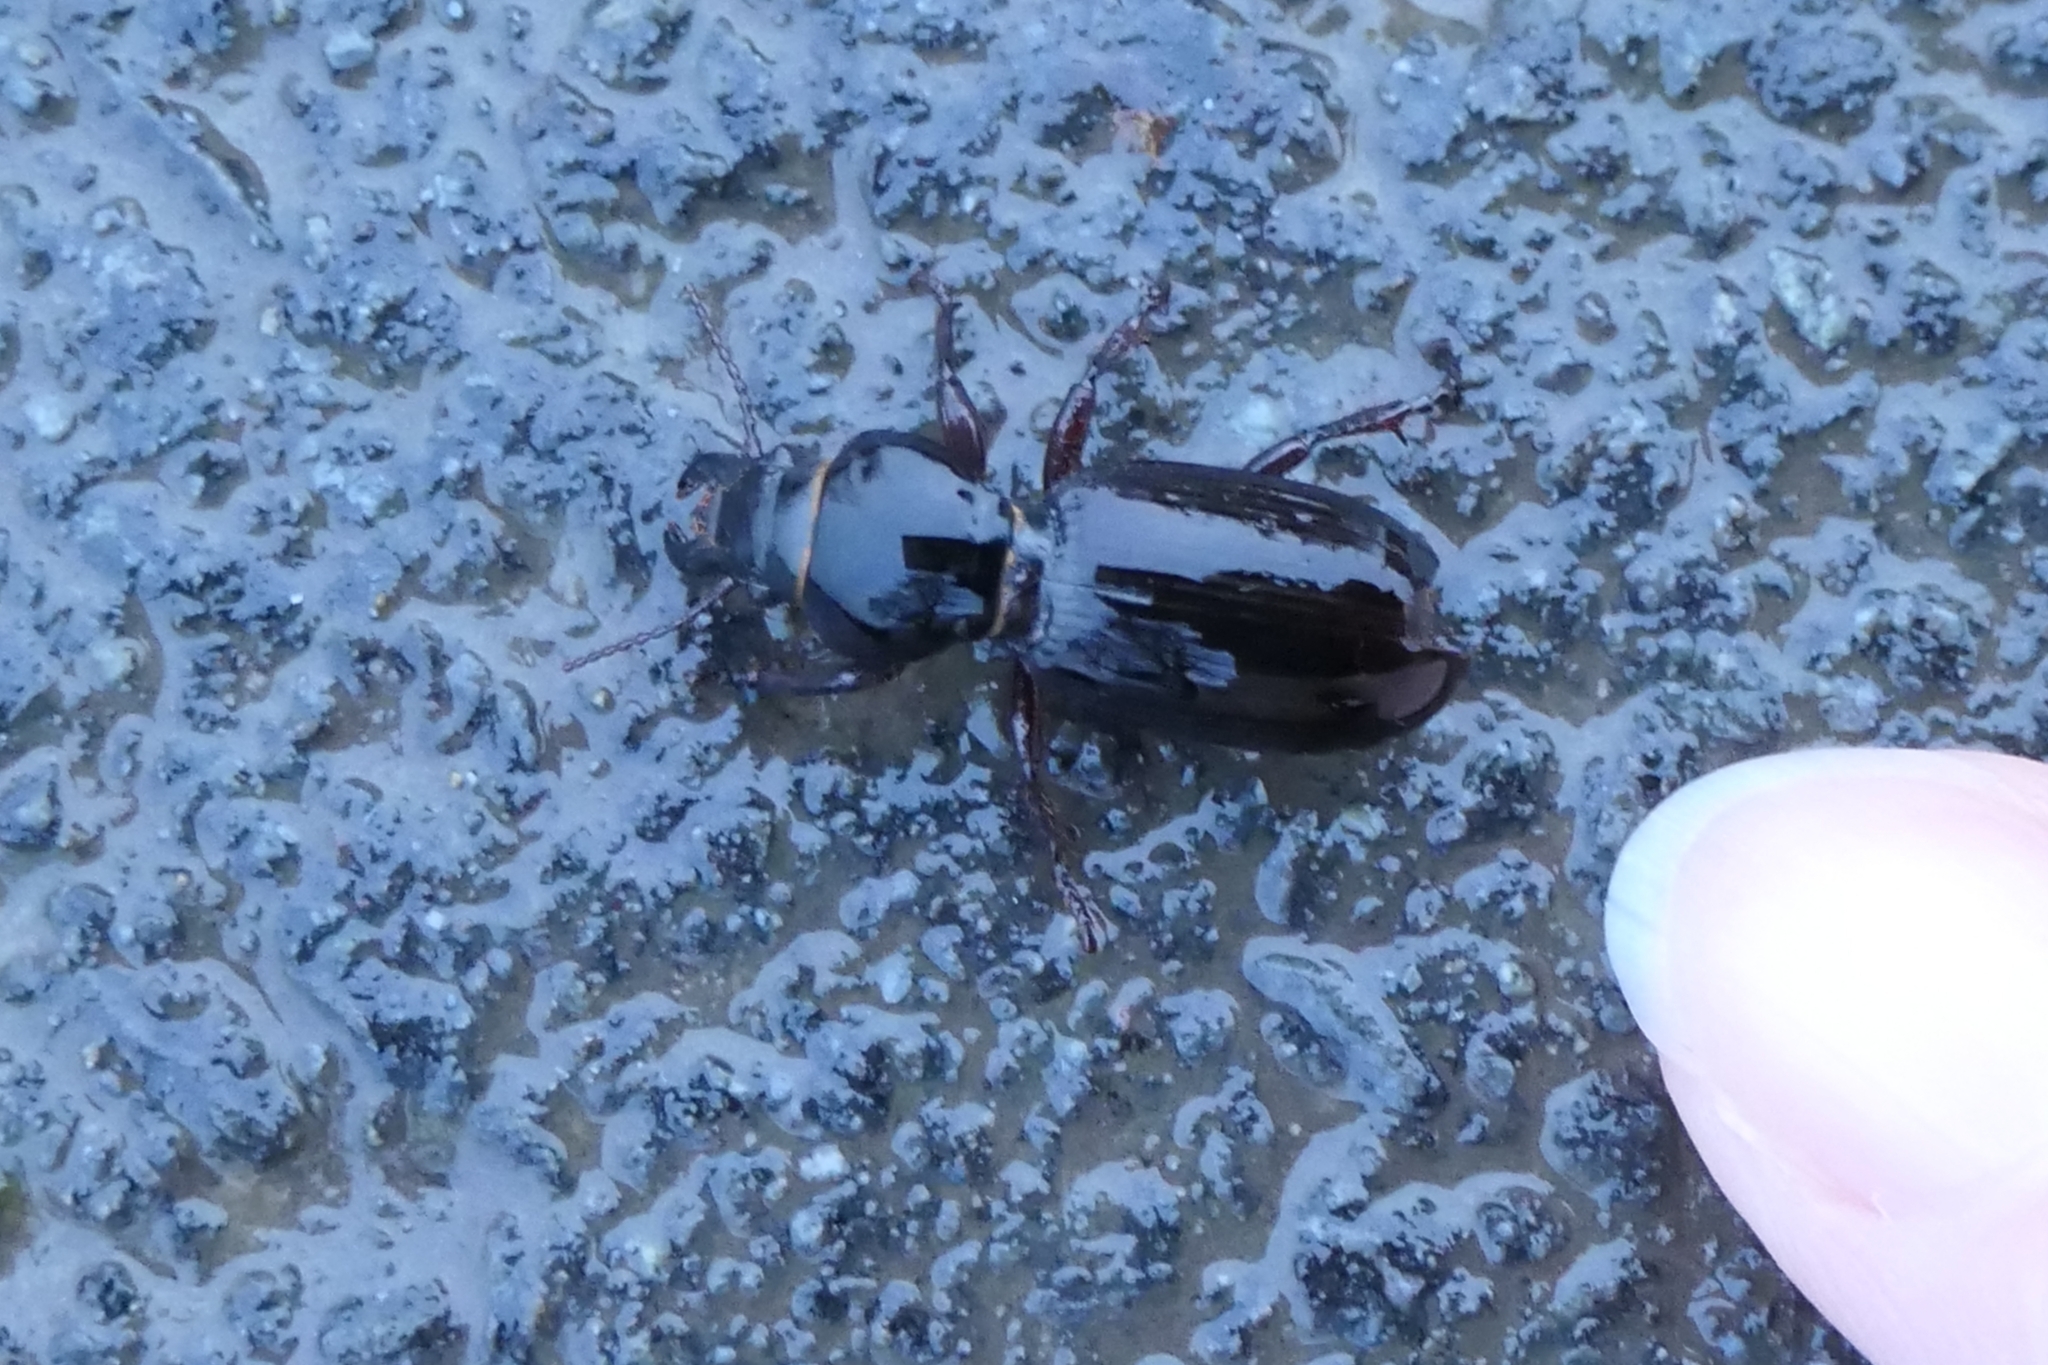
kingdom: Animalia
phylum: Arthropoda
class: Insecta
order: Coleoptera
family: Carabidae
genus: Mecodema
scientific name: Mecodema moniliferum
